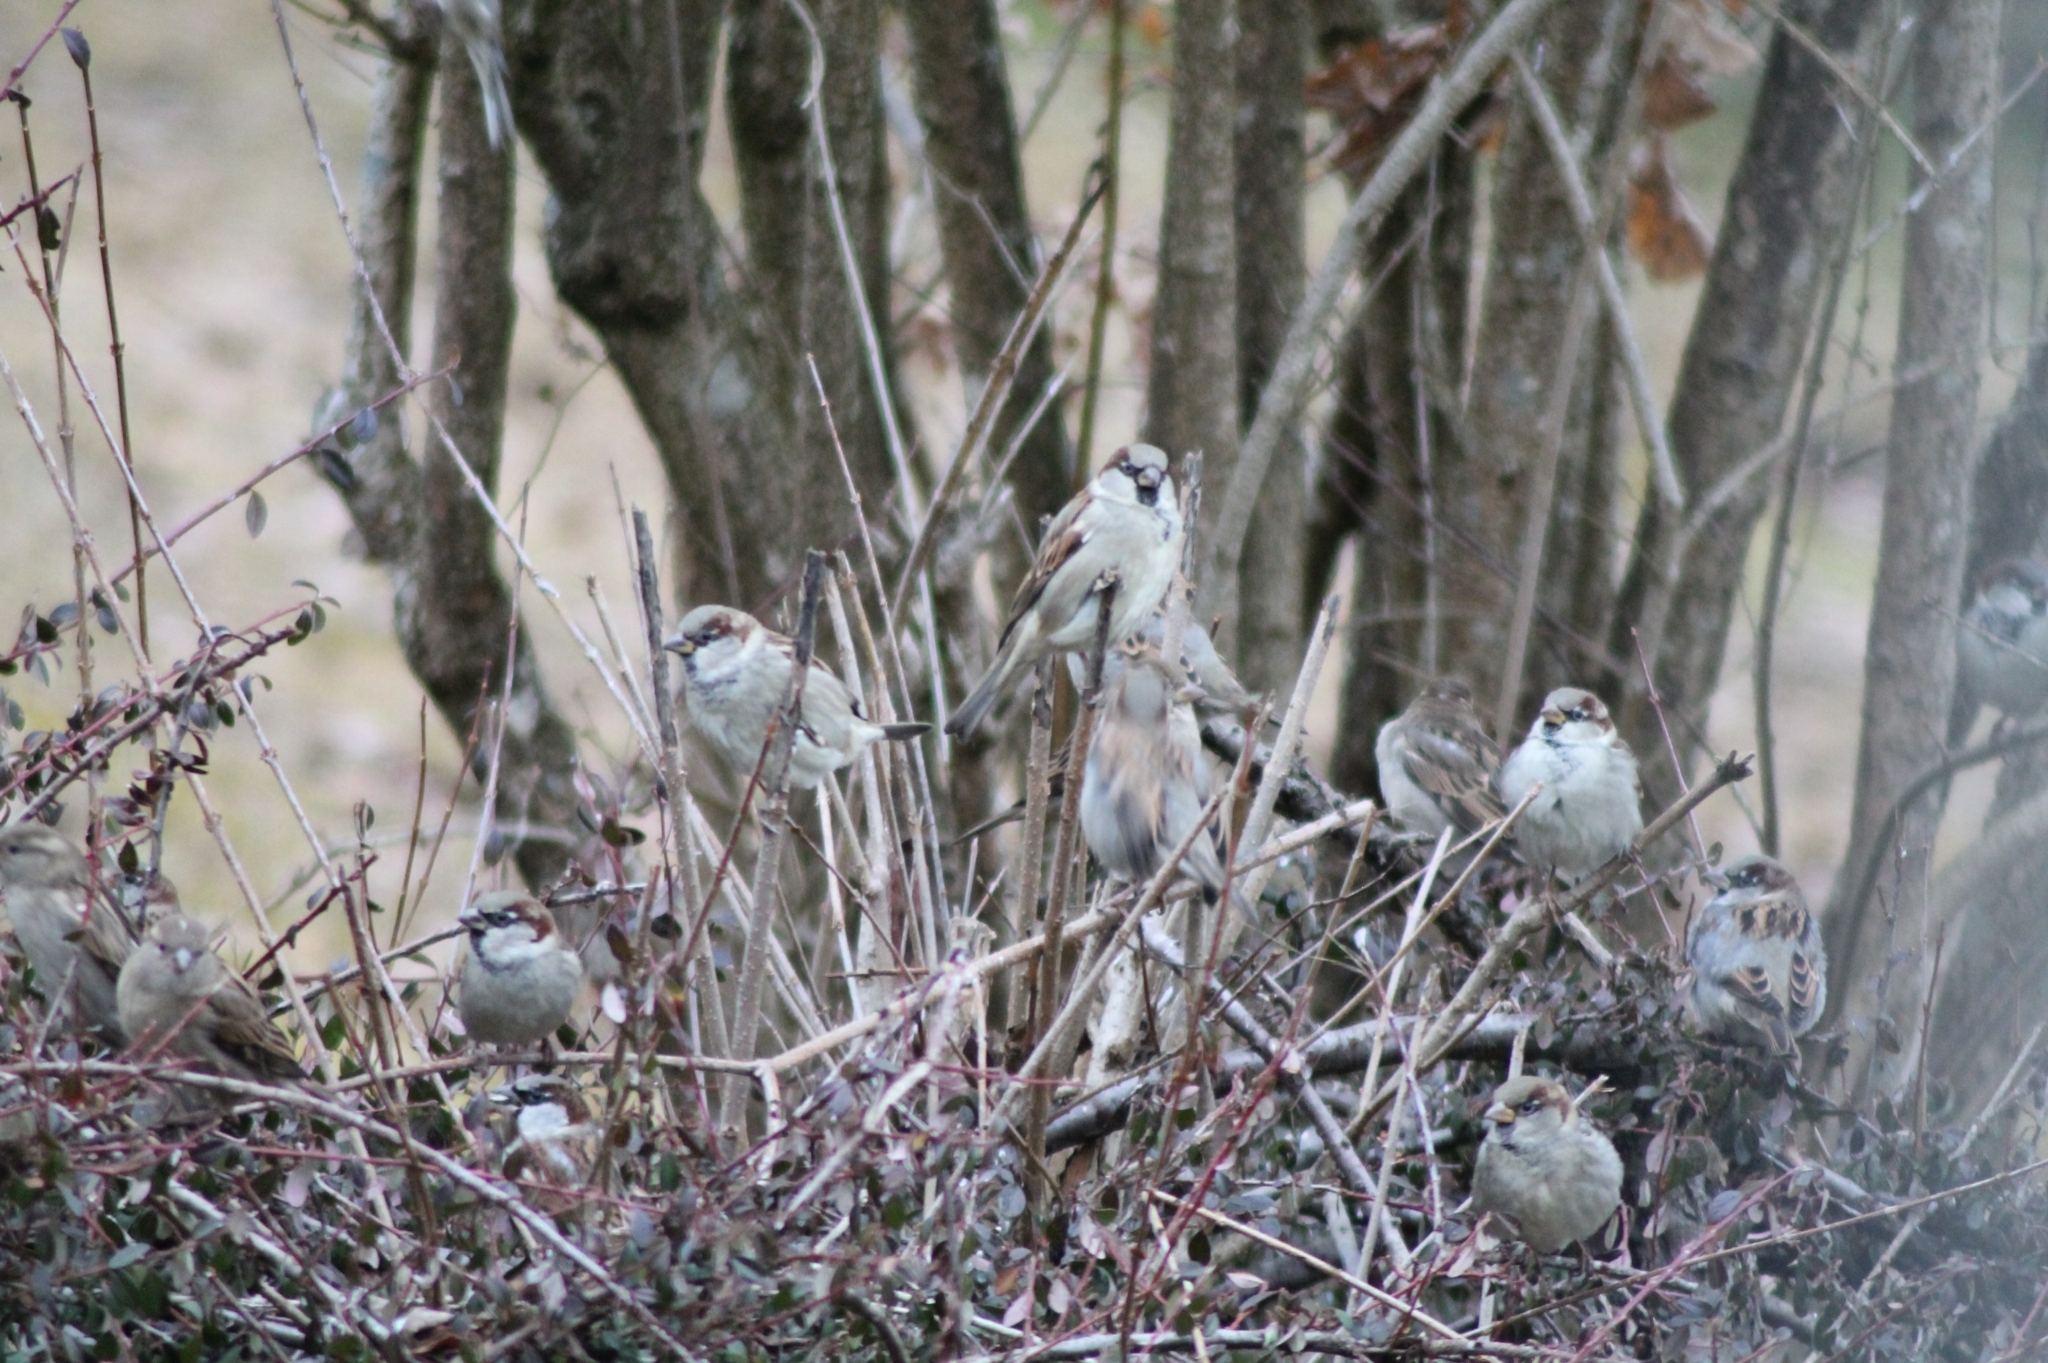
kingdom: Animalia
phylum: Chordata
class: Aves
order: Passeriformes
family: Passeridae
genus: Passer
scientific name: Passer domesticus
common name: House sparrow
